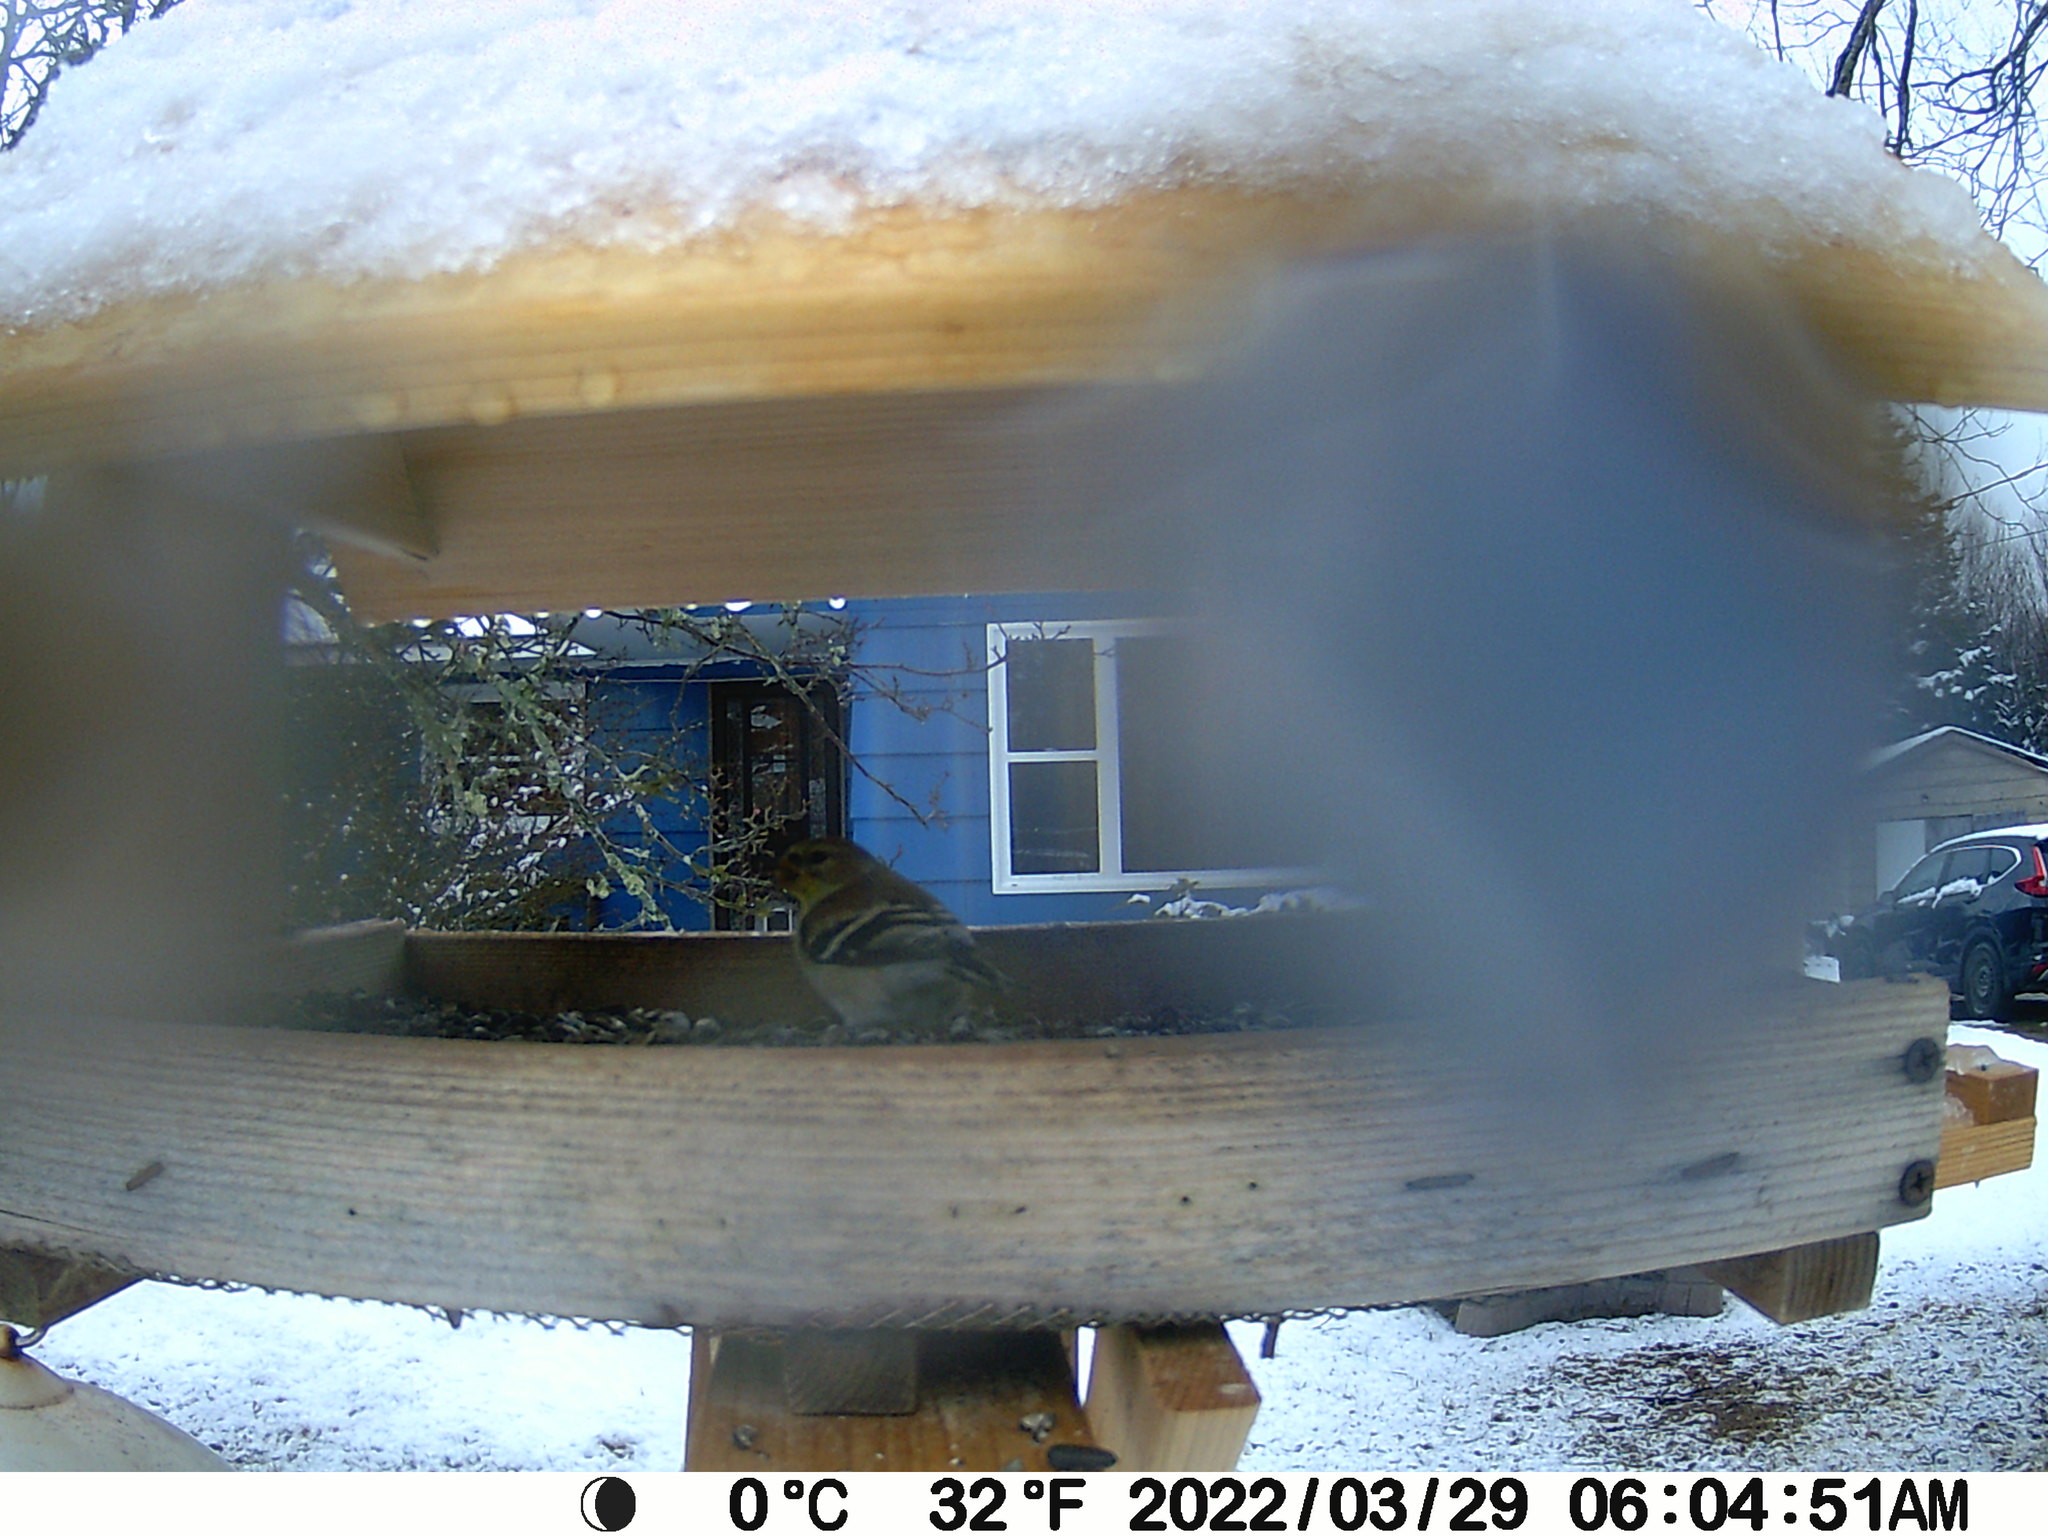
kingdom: Animalia
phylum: Chordata
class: Aves
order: Passeriformes
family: Fringillidae
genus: Spinus
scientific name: Spinus tristis
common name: American goldfinch
